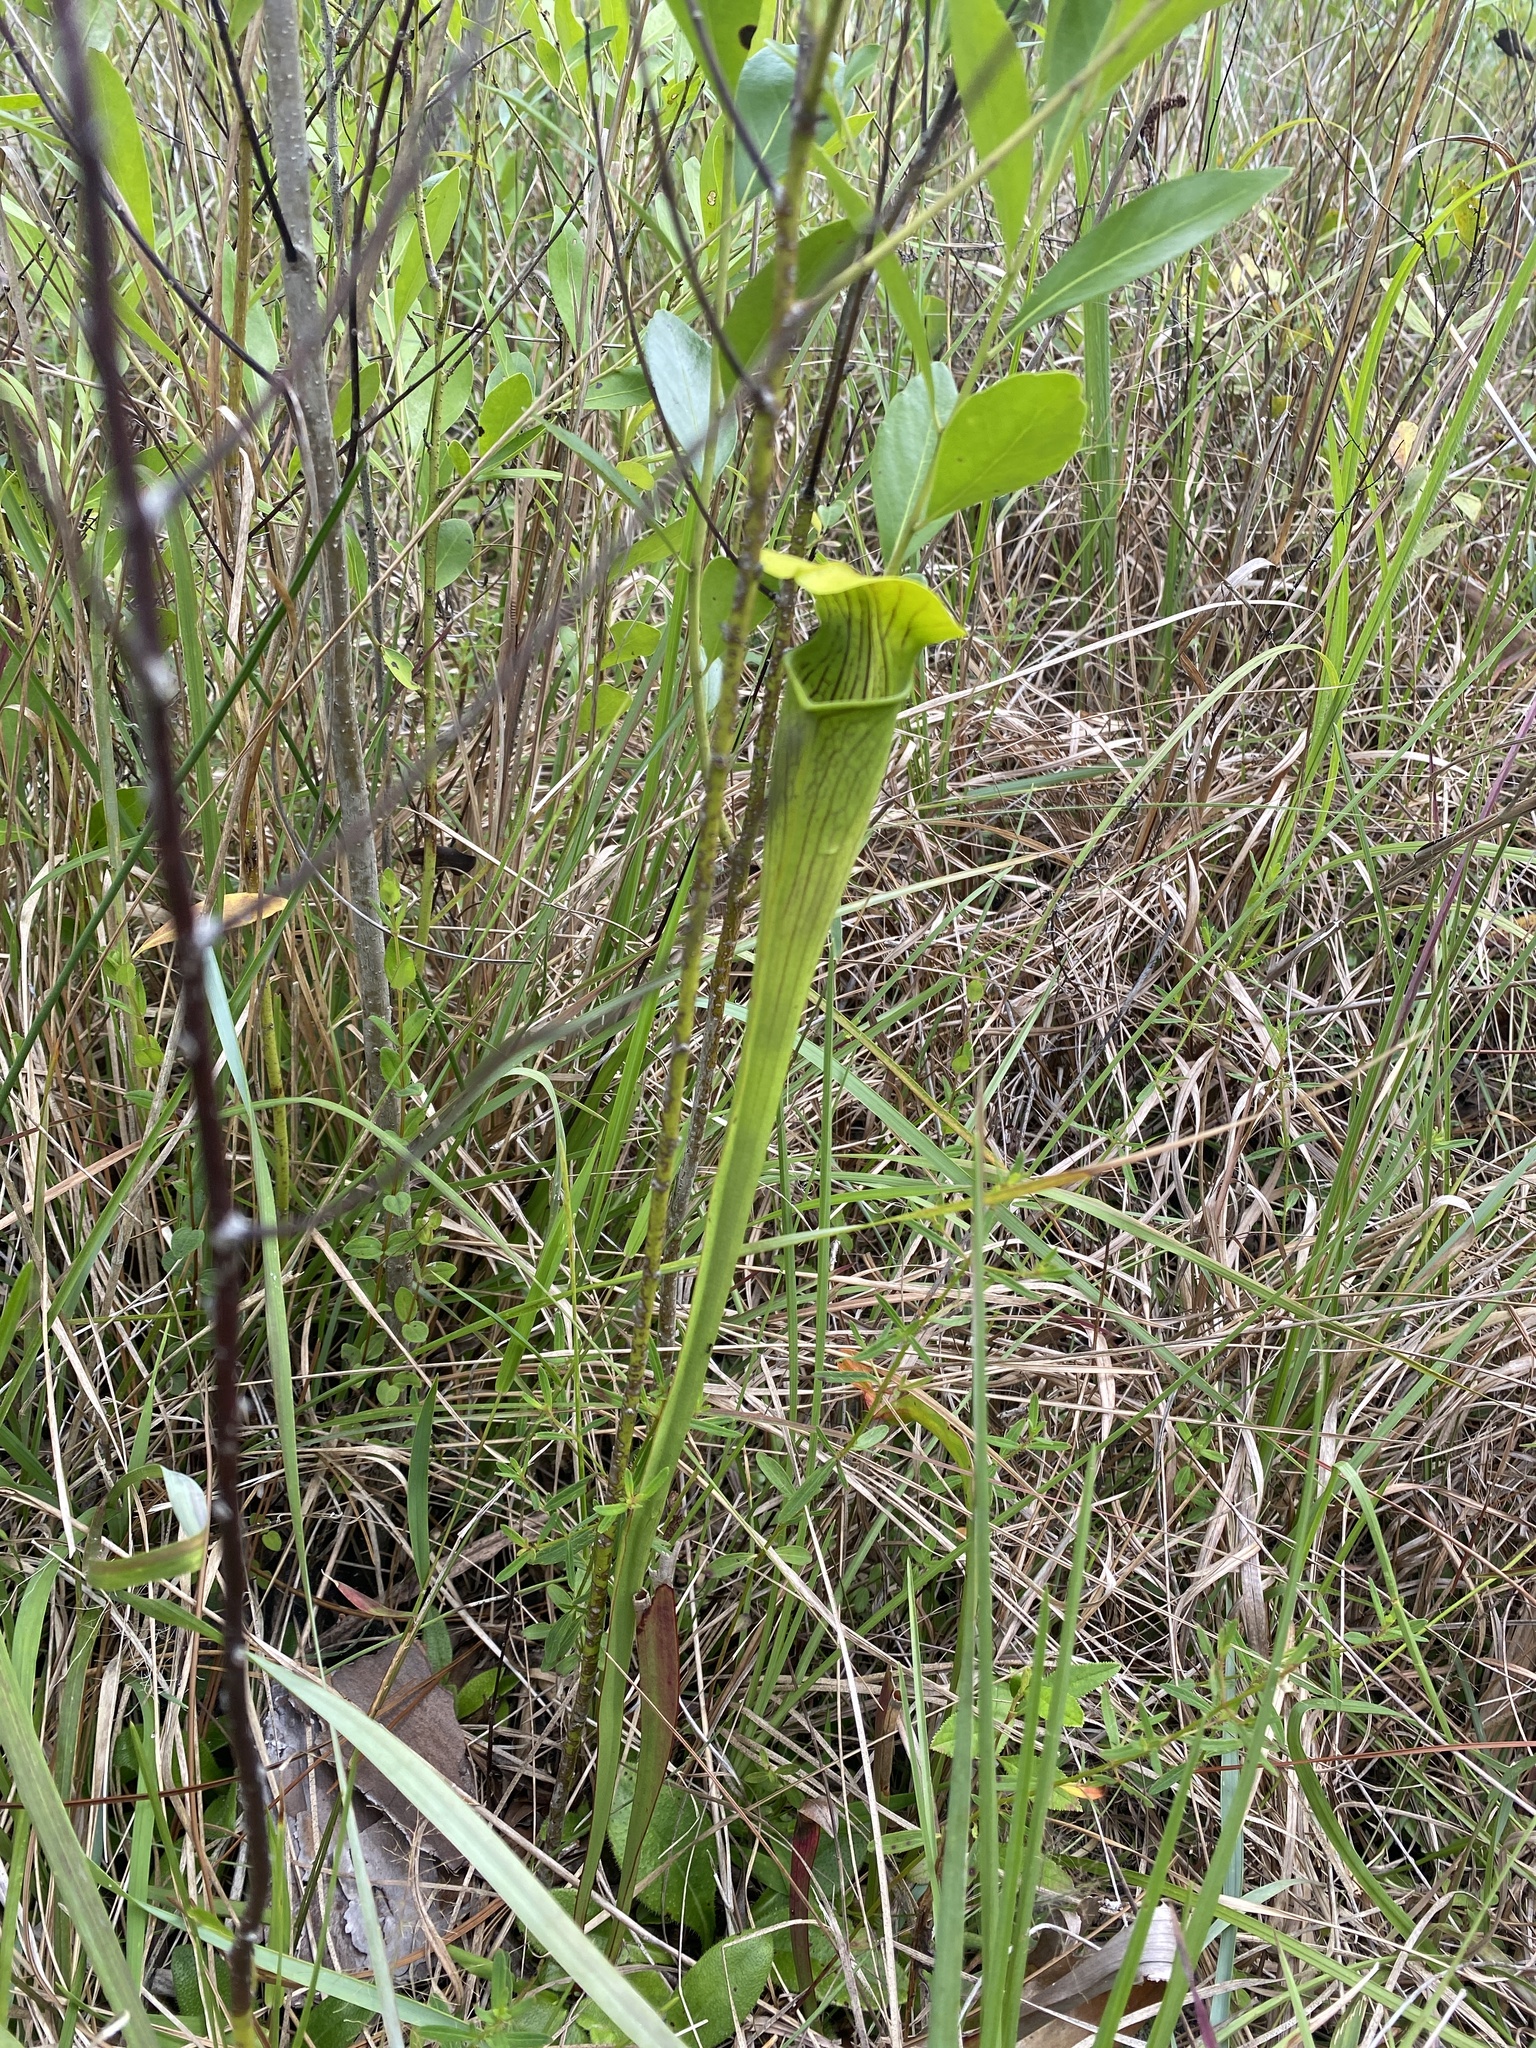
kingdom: Plantae
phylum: Tracheophyta
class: Magnoliopsida
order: Ericales
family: Sarraceniaceae
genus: Sarracenia
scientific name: Sarracenia alata
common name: Yellow trumpets
